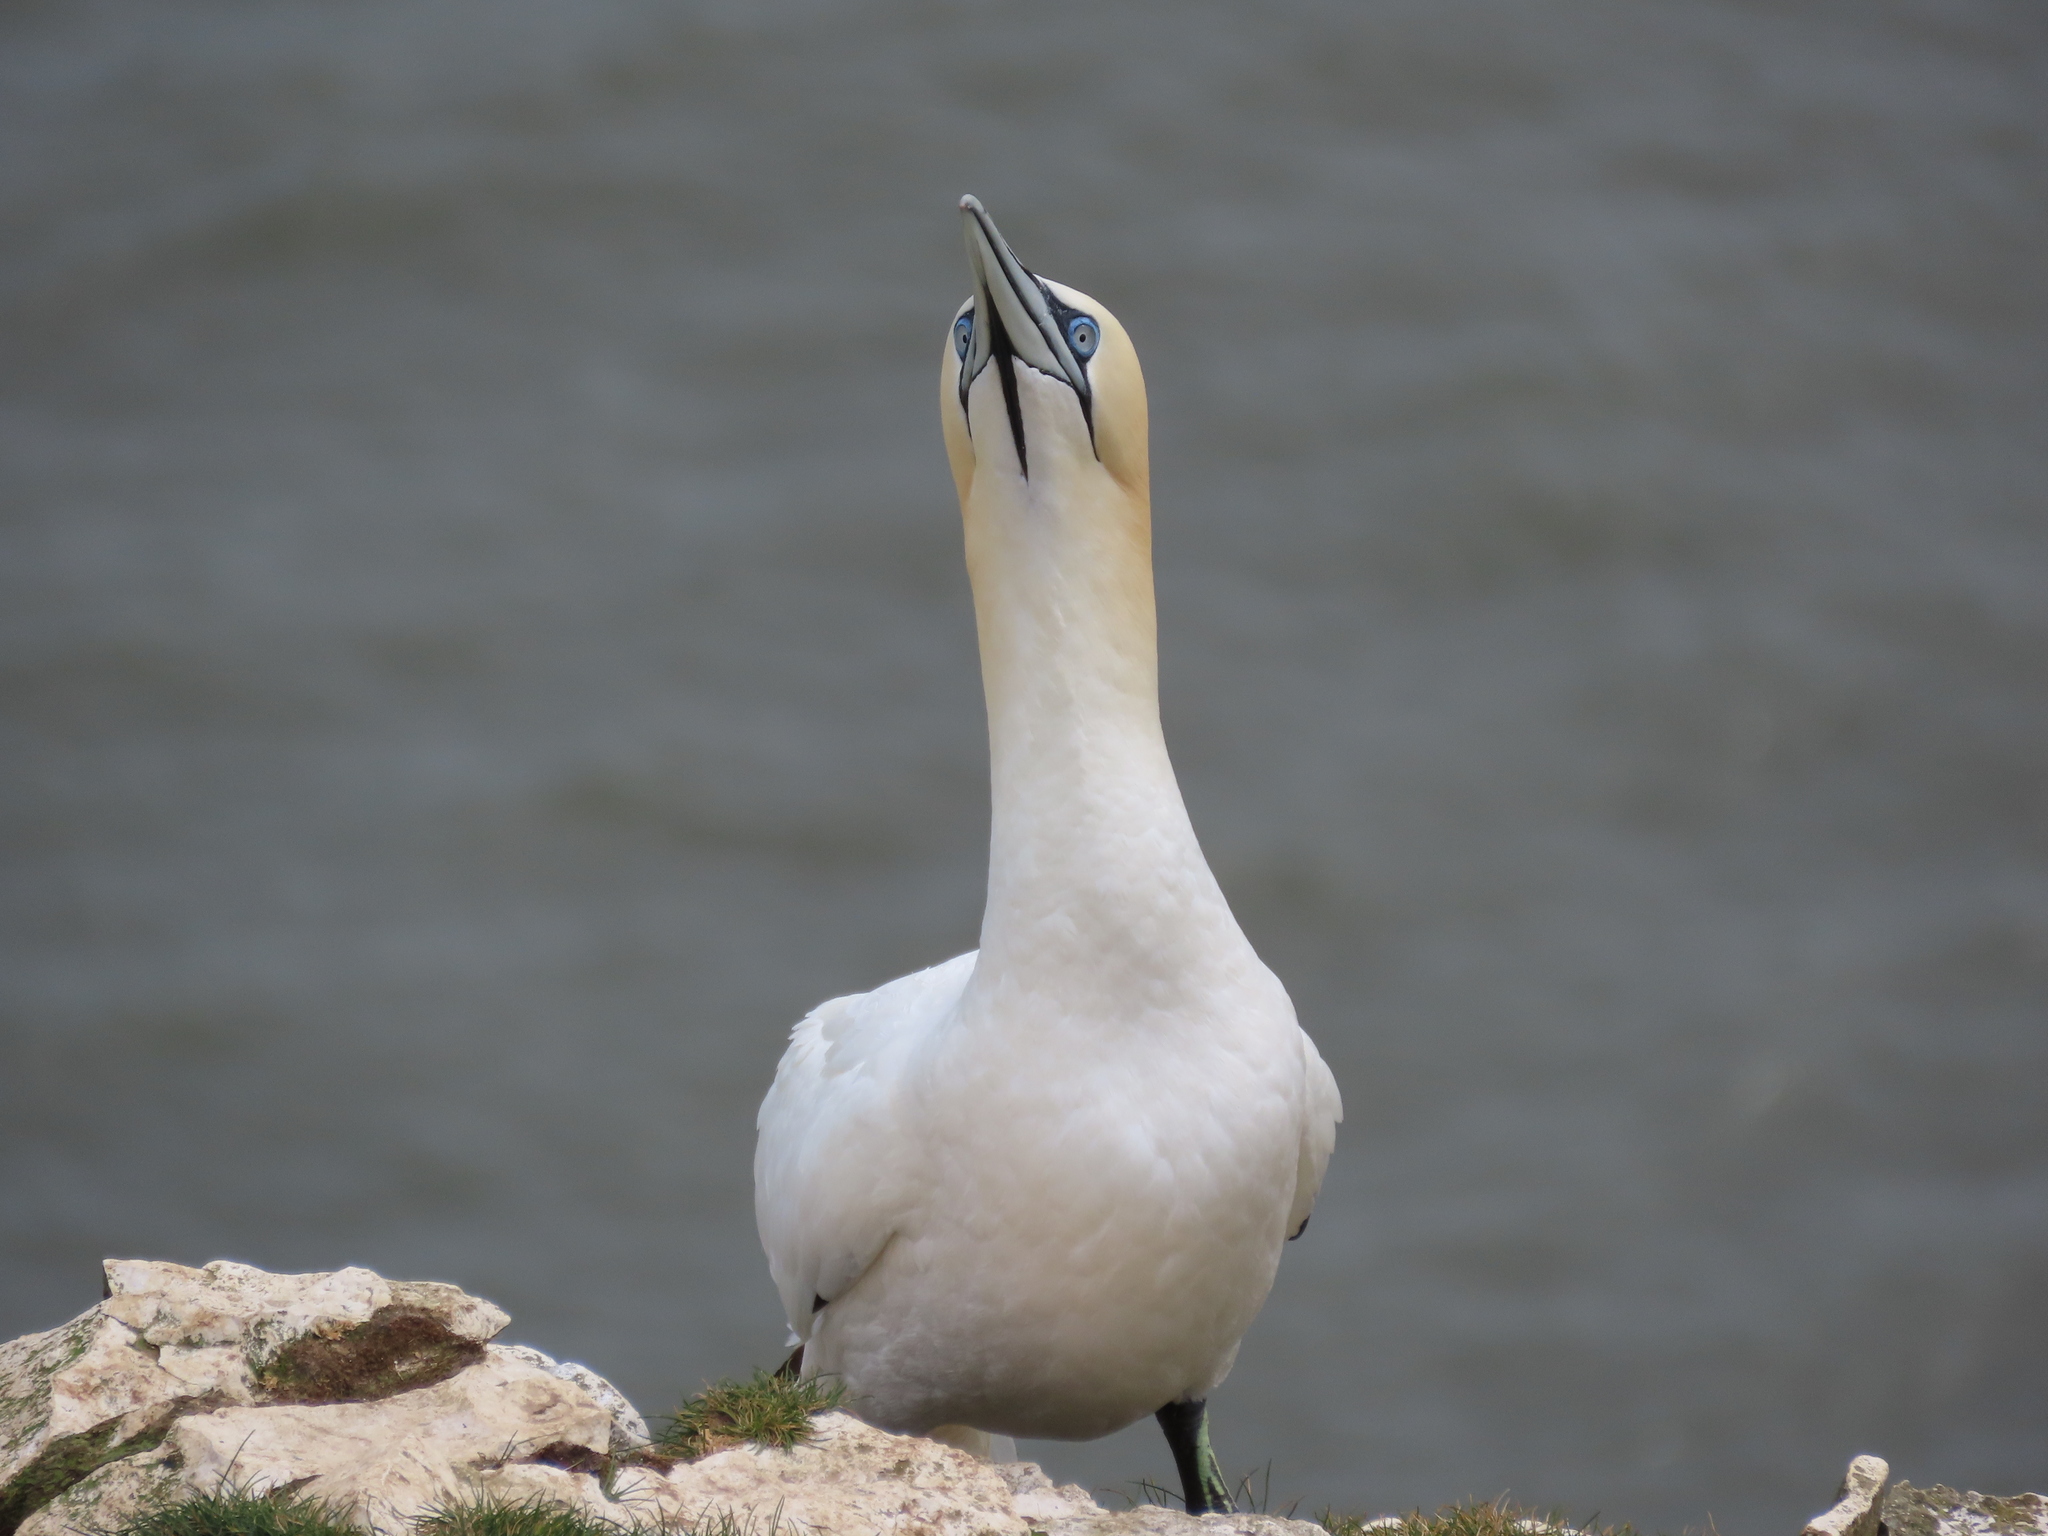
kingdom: Animalia
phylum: Chordata
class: Aves
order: Suliformes
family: Sulidae
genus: Morus
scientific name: Morus bassanus
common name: Northern gannet
